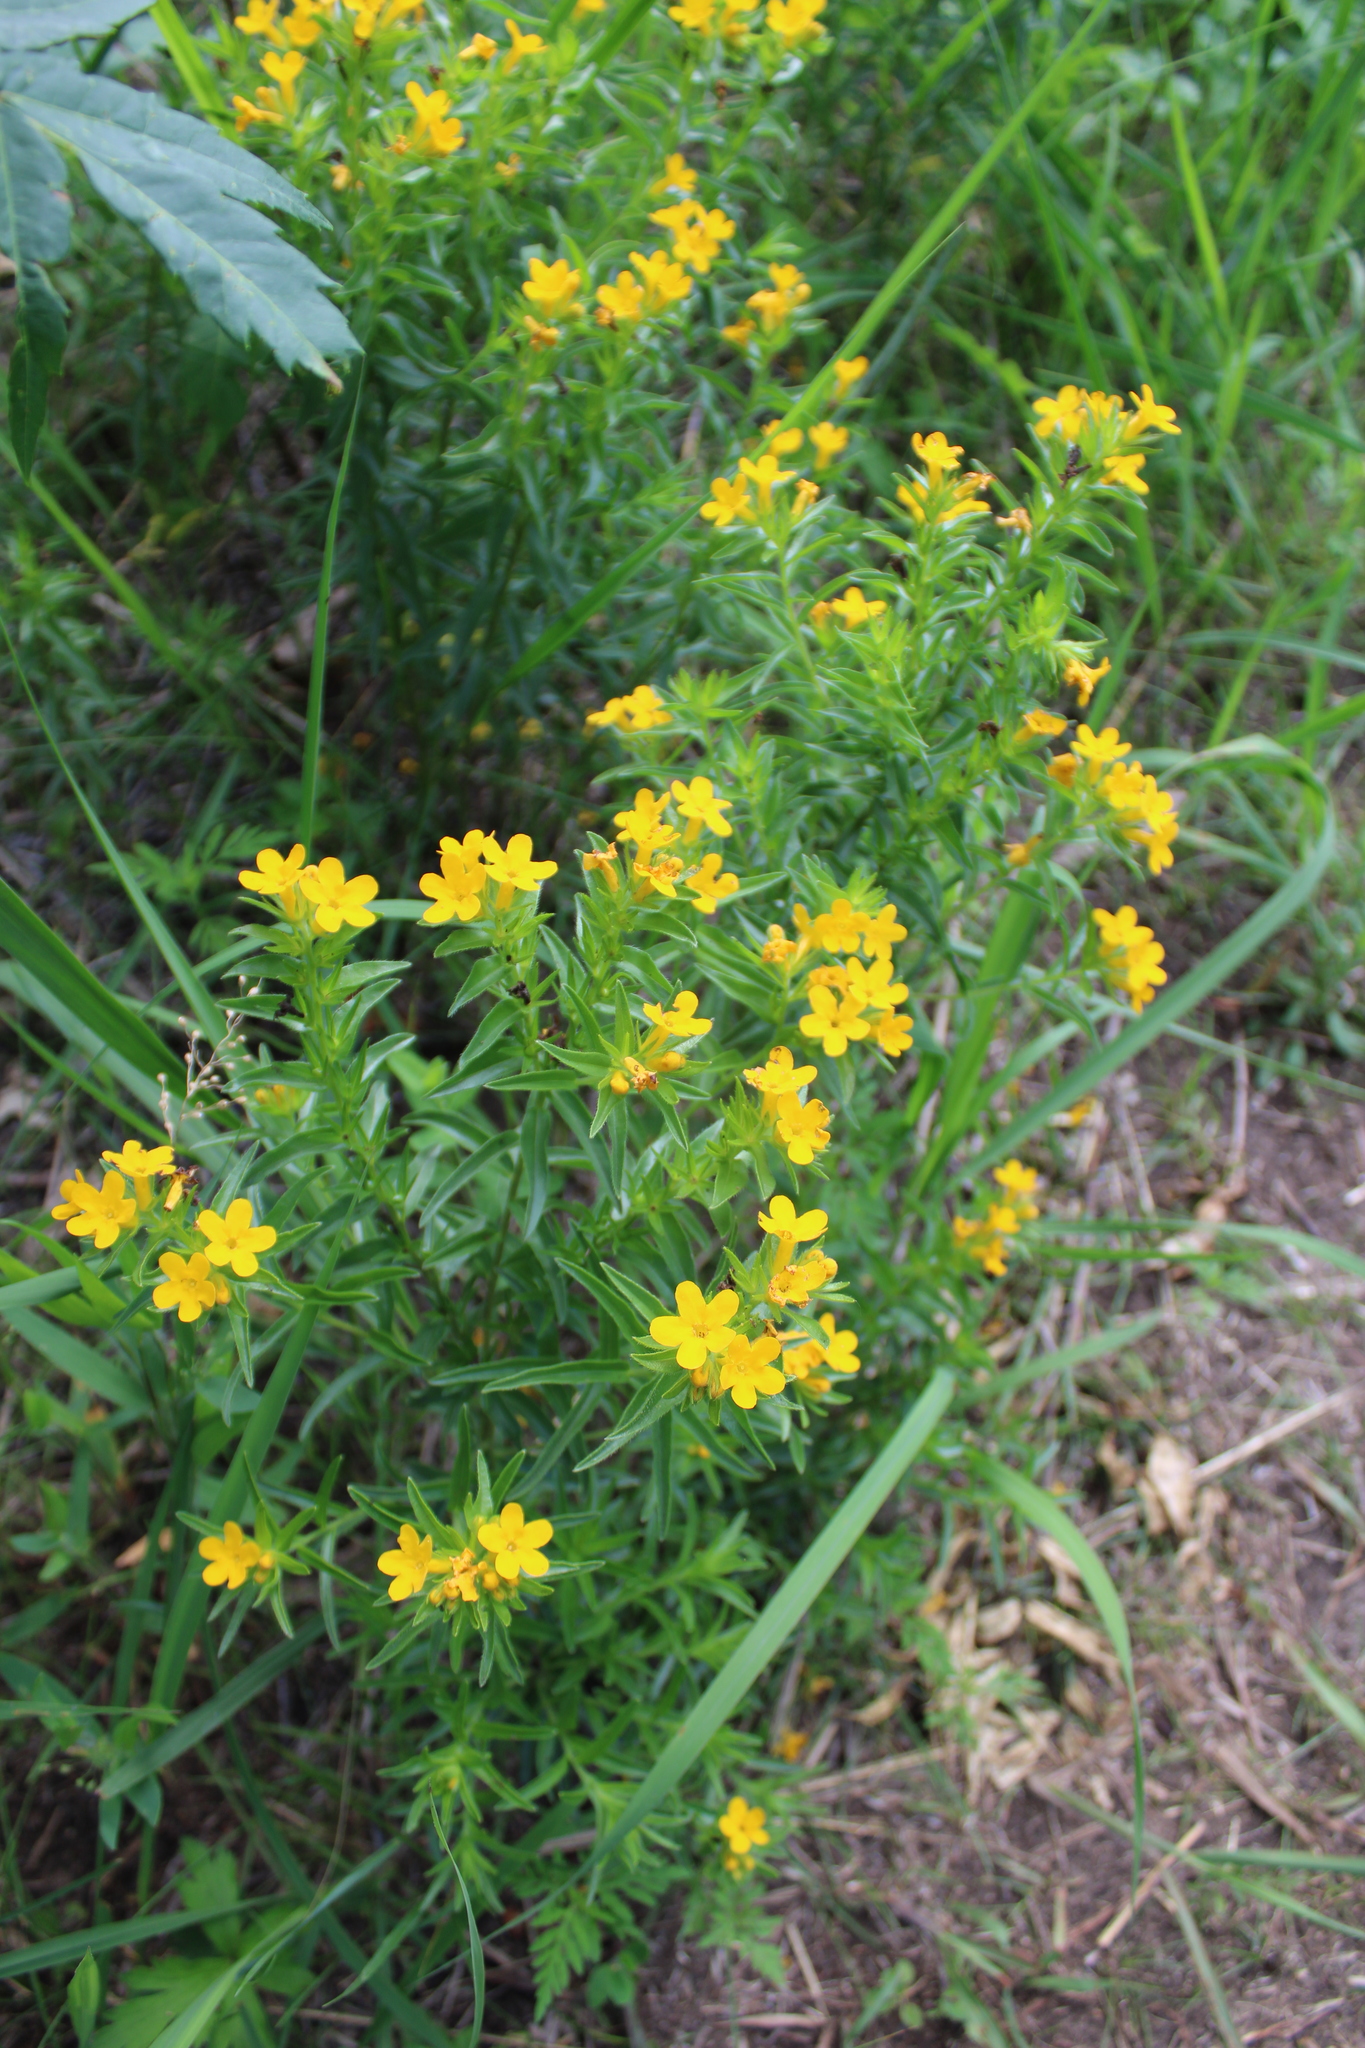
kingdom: Plantae
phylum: Tracheophyta
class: Magnoliopsida
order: Boraginales
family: Boraginaceae
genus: Lithospermum
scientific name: Lithospermum caroliniense
